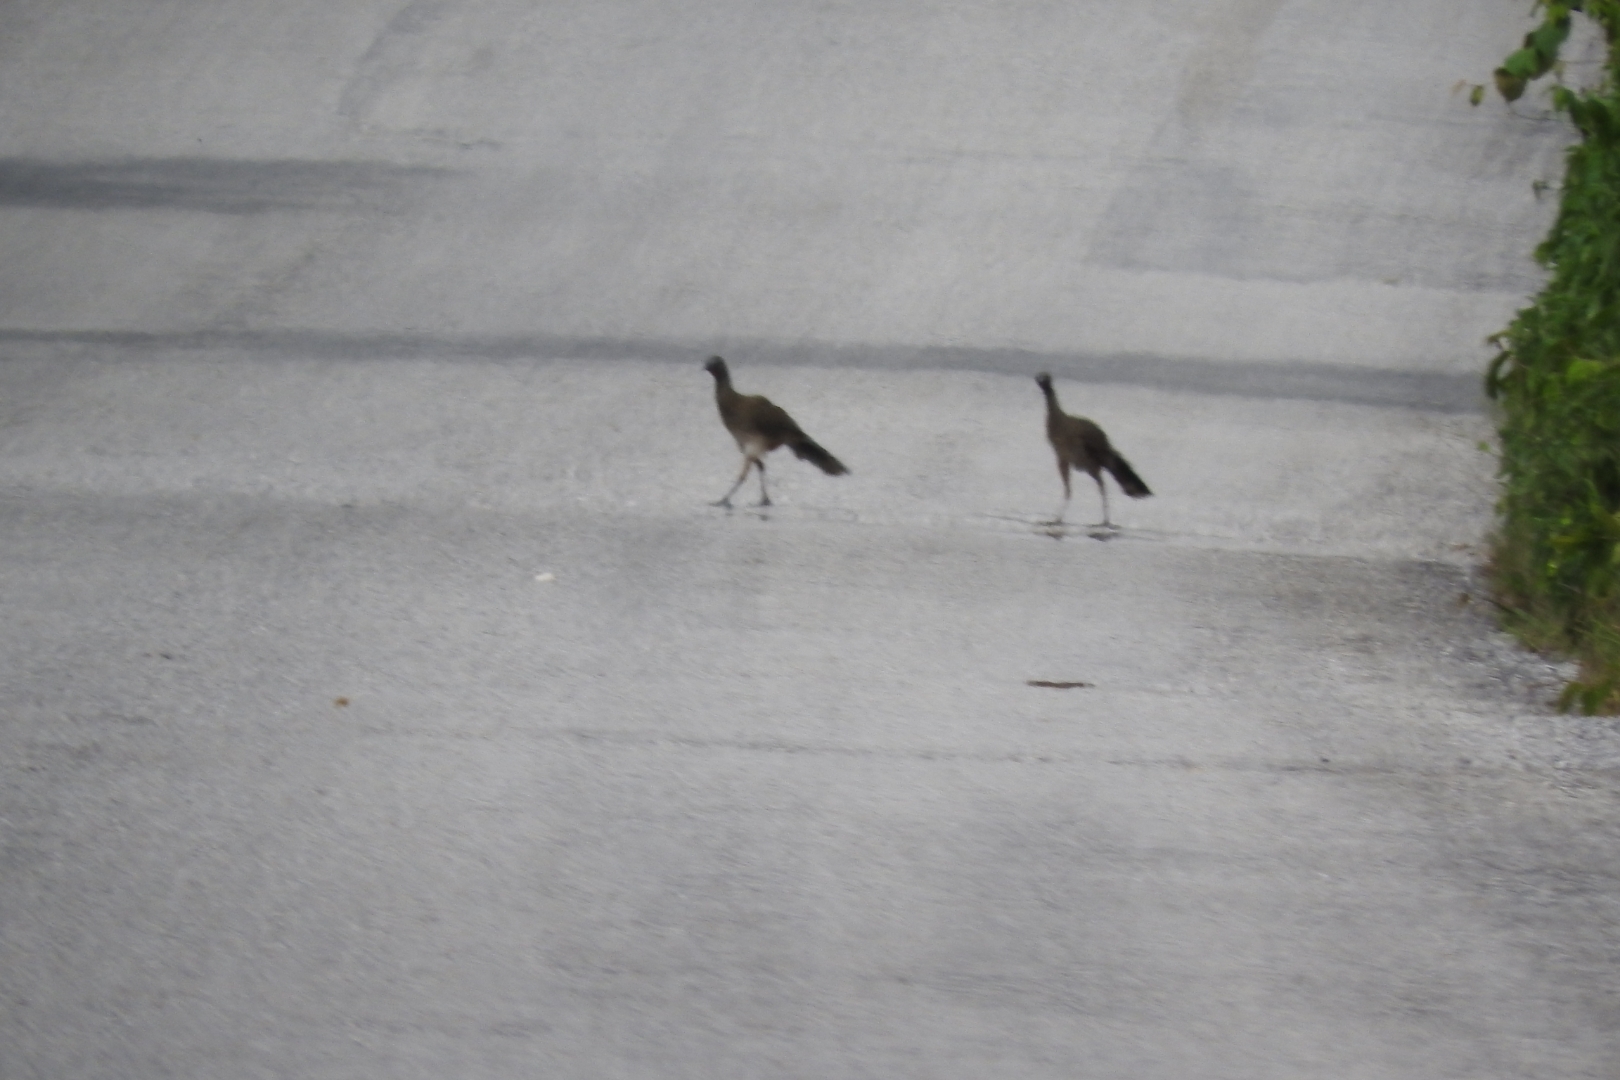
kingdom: Animalia
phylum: Chordata
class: Aves
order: Galliformes
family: Cracidae
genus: Ortalis
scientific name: Ortalis vetula
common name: Plain chachalaca
